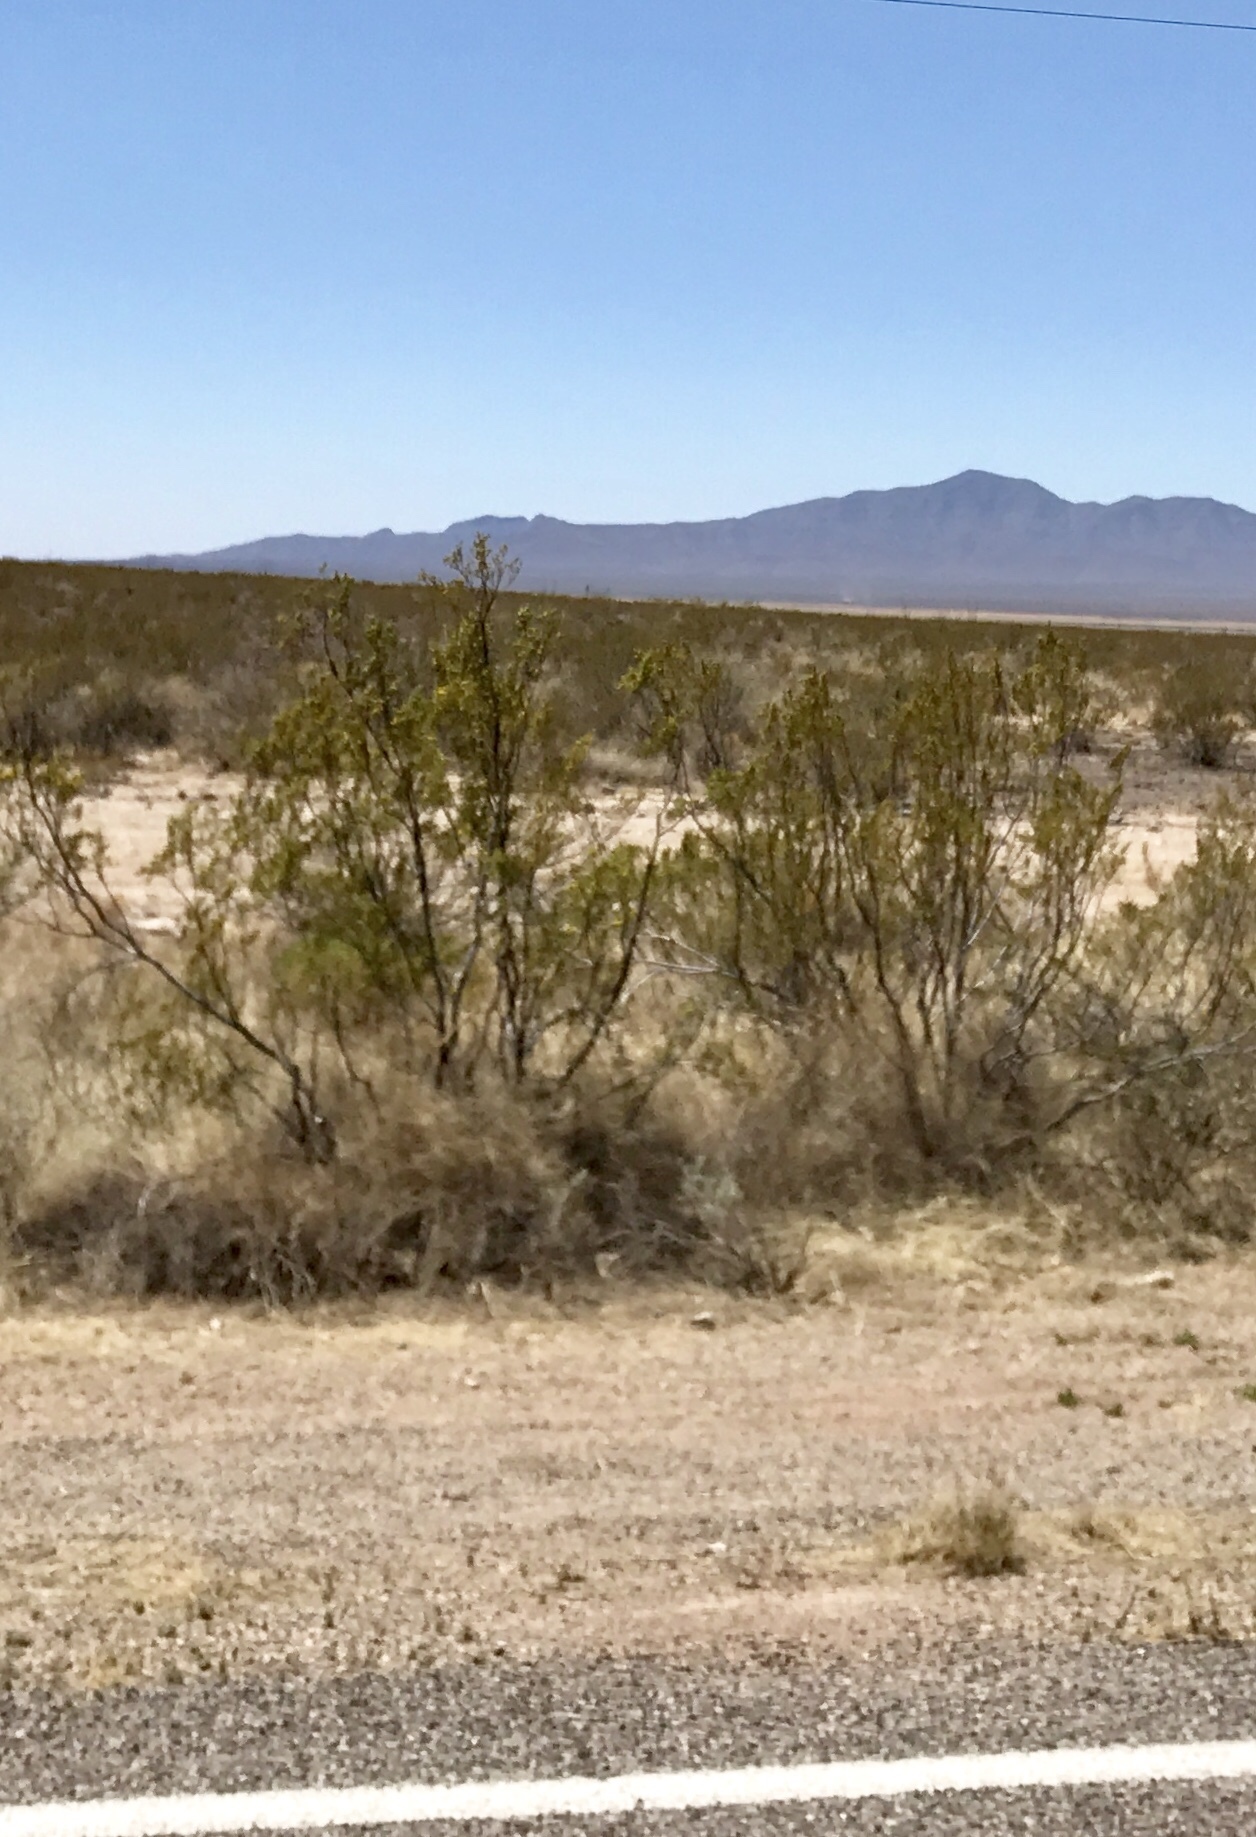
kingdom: Plantae
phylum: Tracheophyta
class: Magnoliopsida
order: Zygophyllales
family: Zygophyllaceae
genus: Larrea
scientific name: Larrea tridentata
